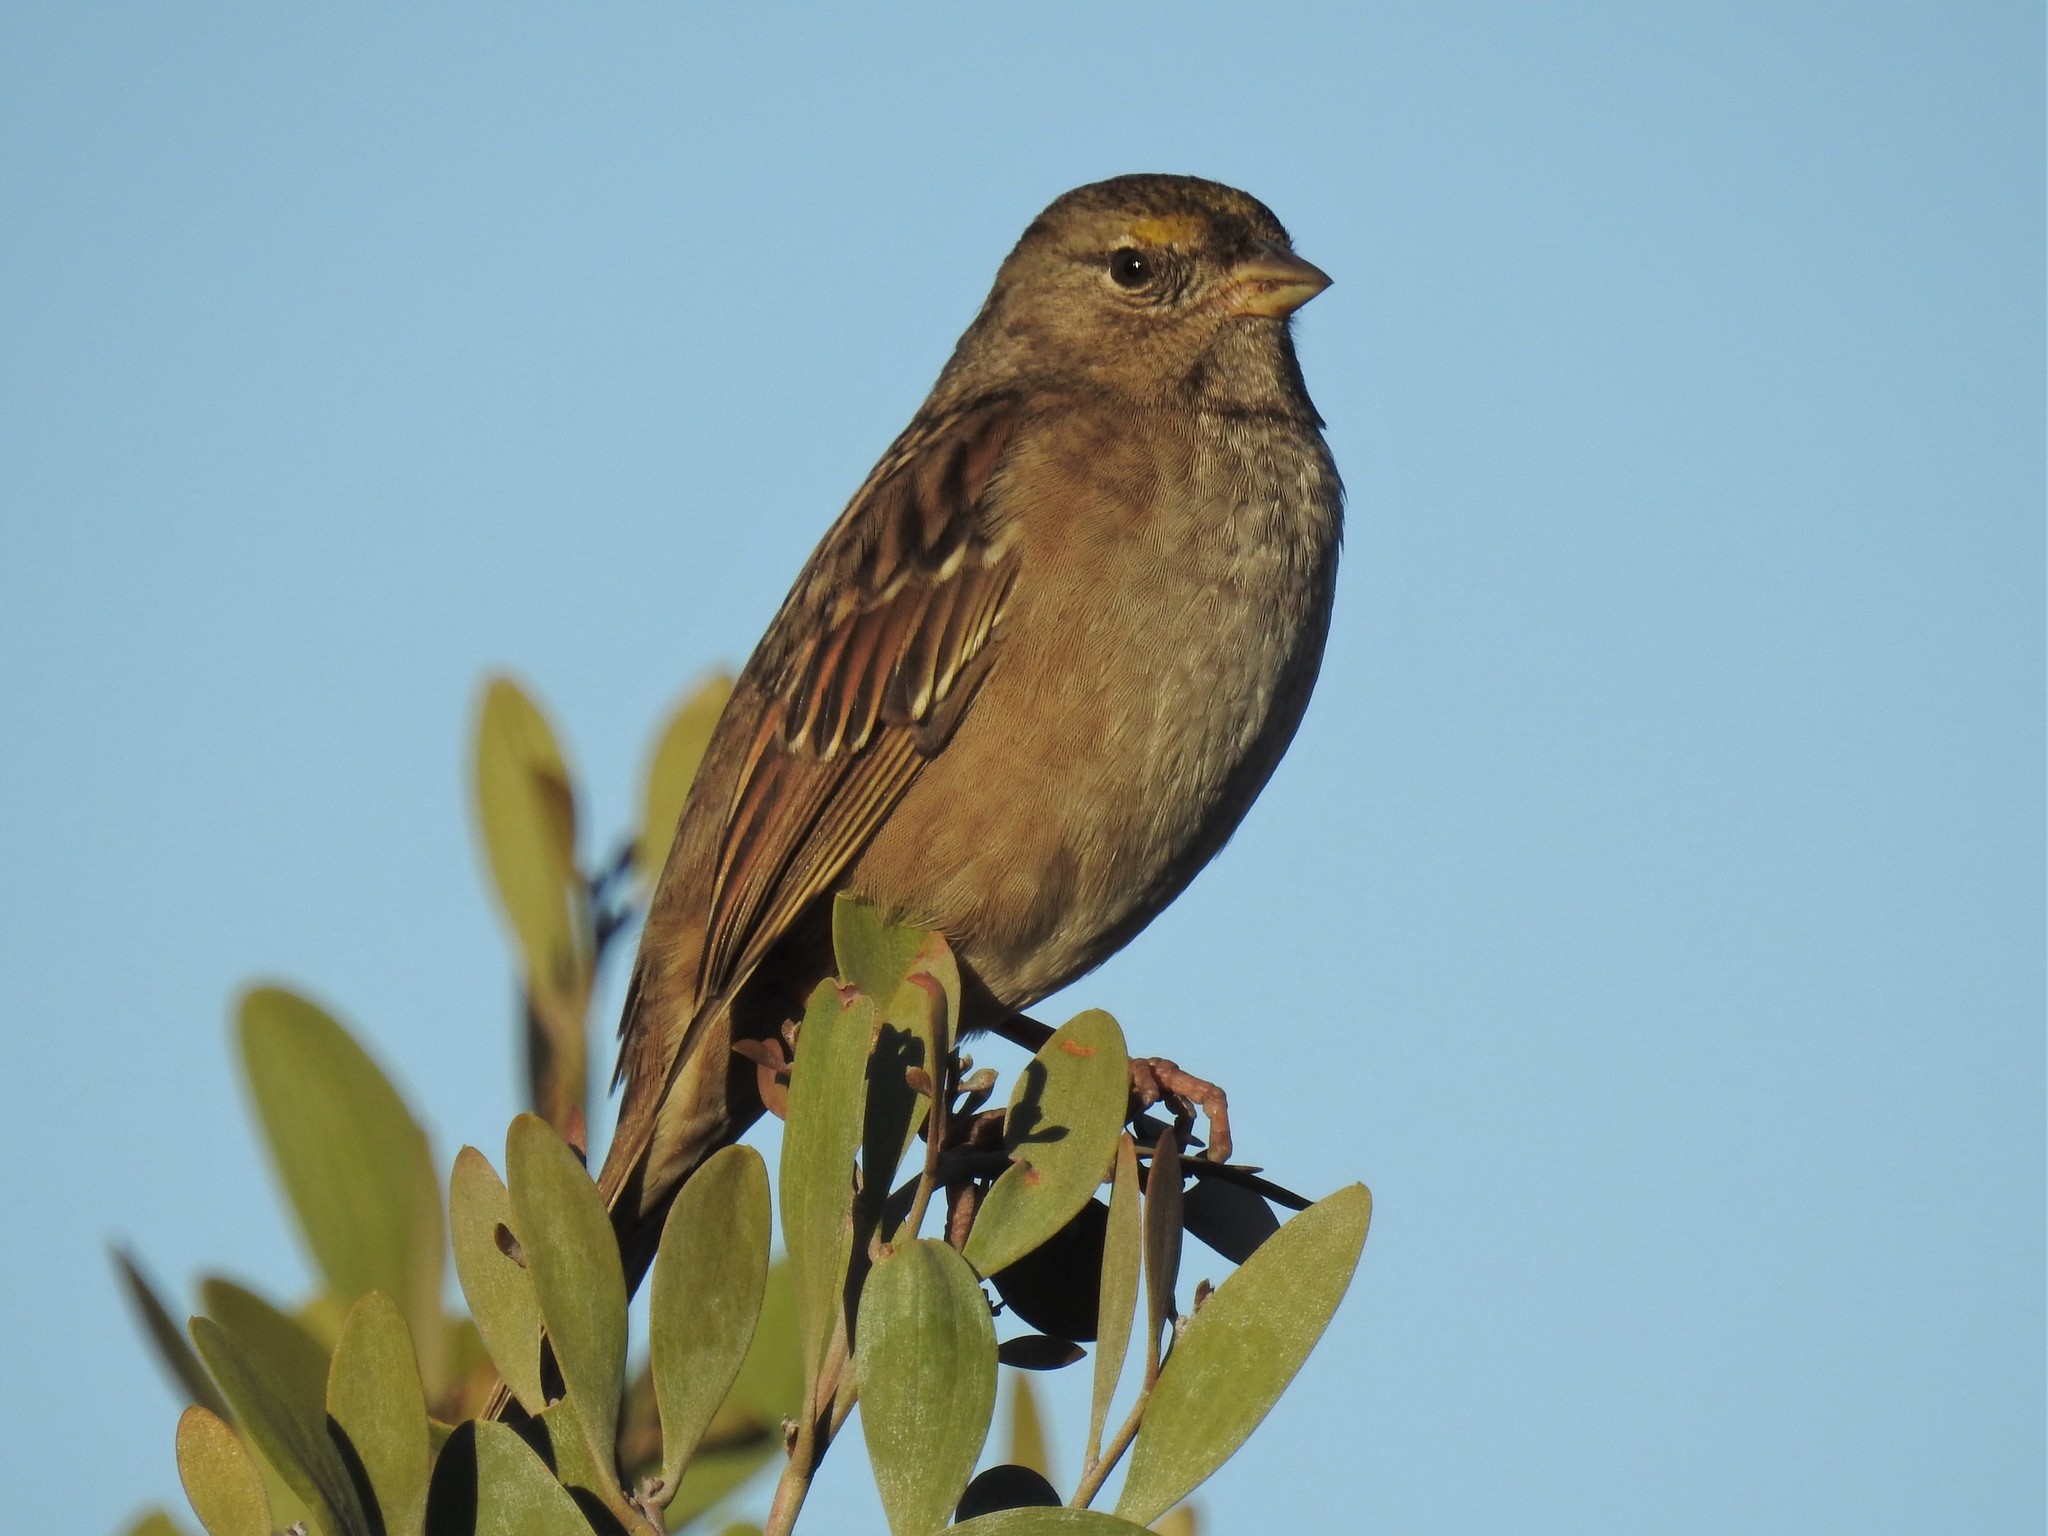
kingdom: Animalia
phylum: Chordata
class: Aves
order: Passeriformes
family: Passerellidae
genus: Zonotrichia
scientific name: Zonotrichia atricapilla
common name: Golden-crowned sparrow
